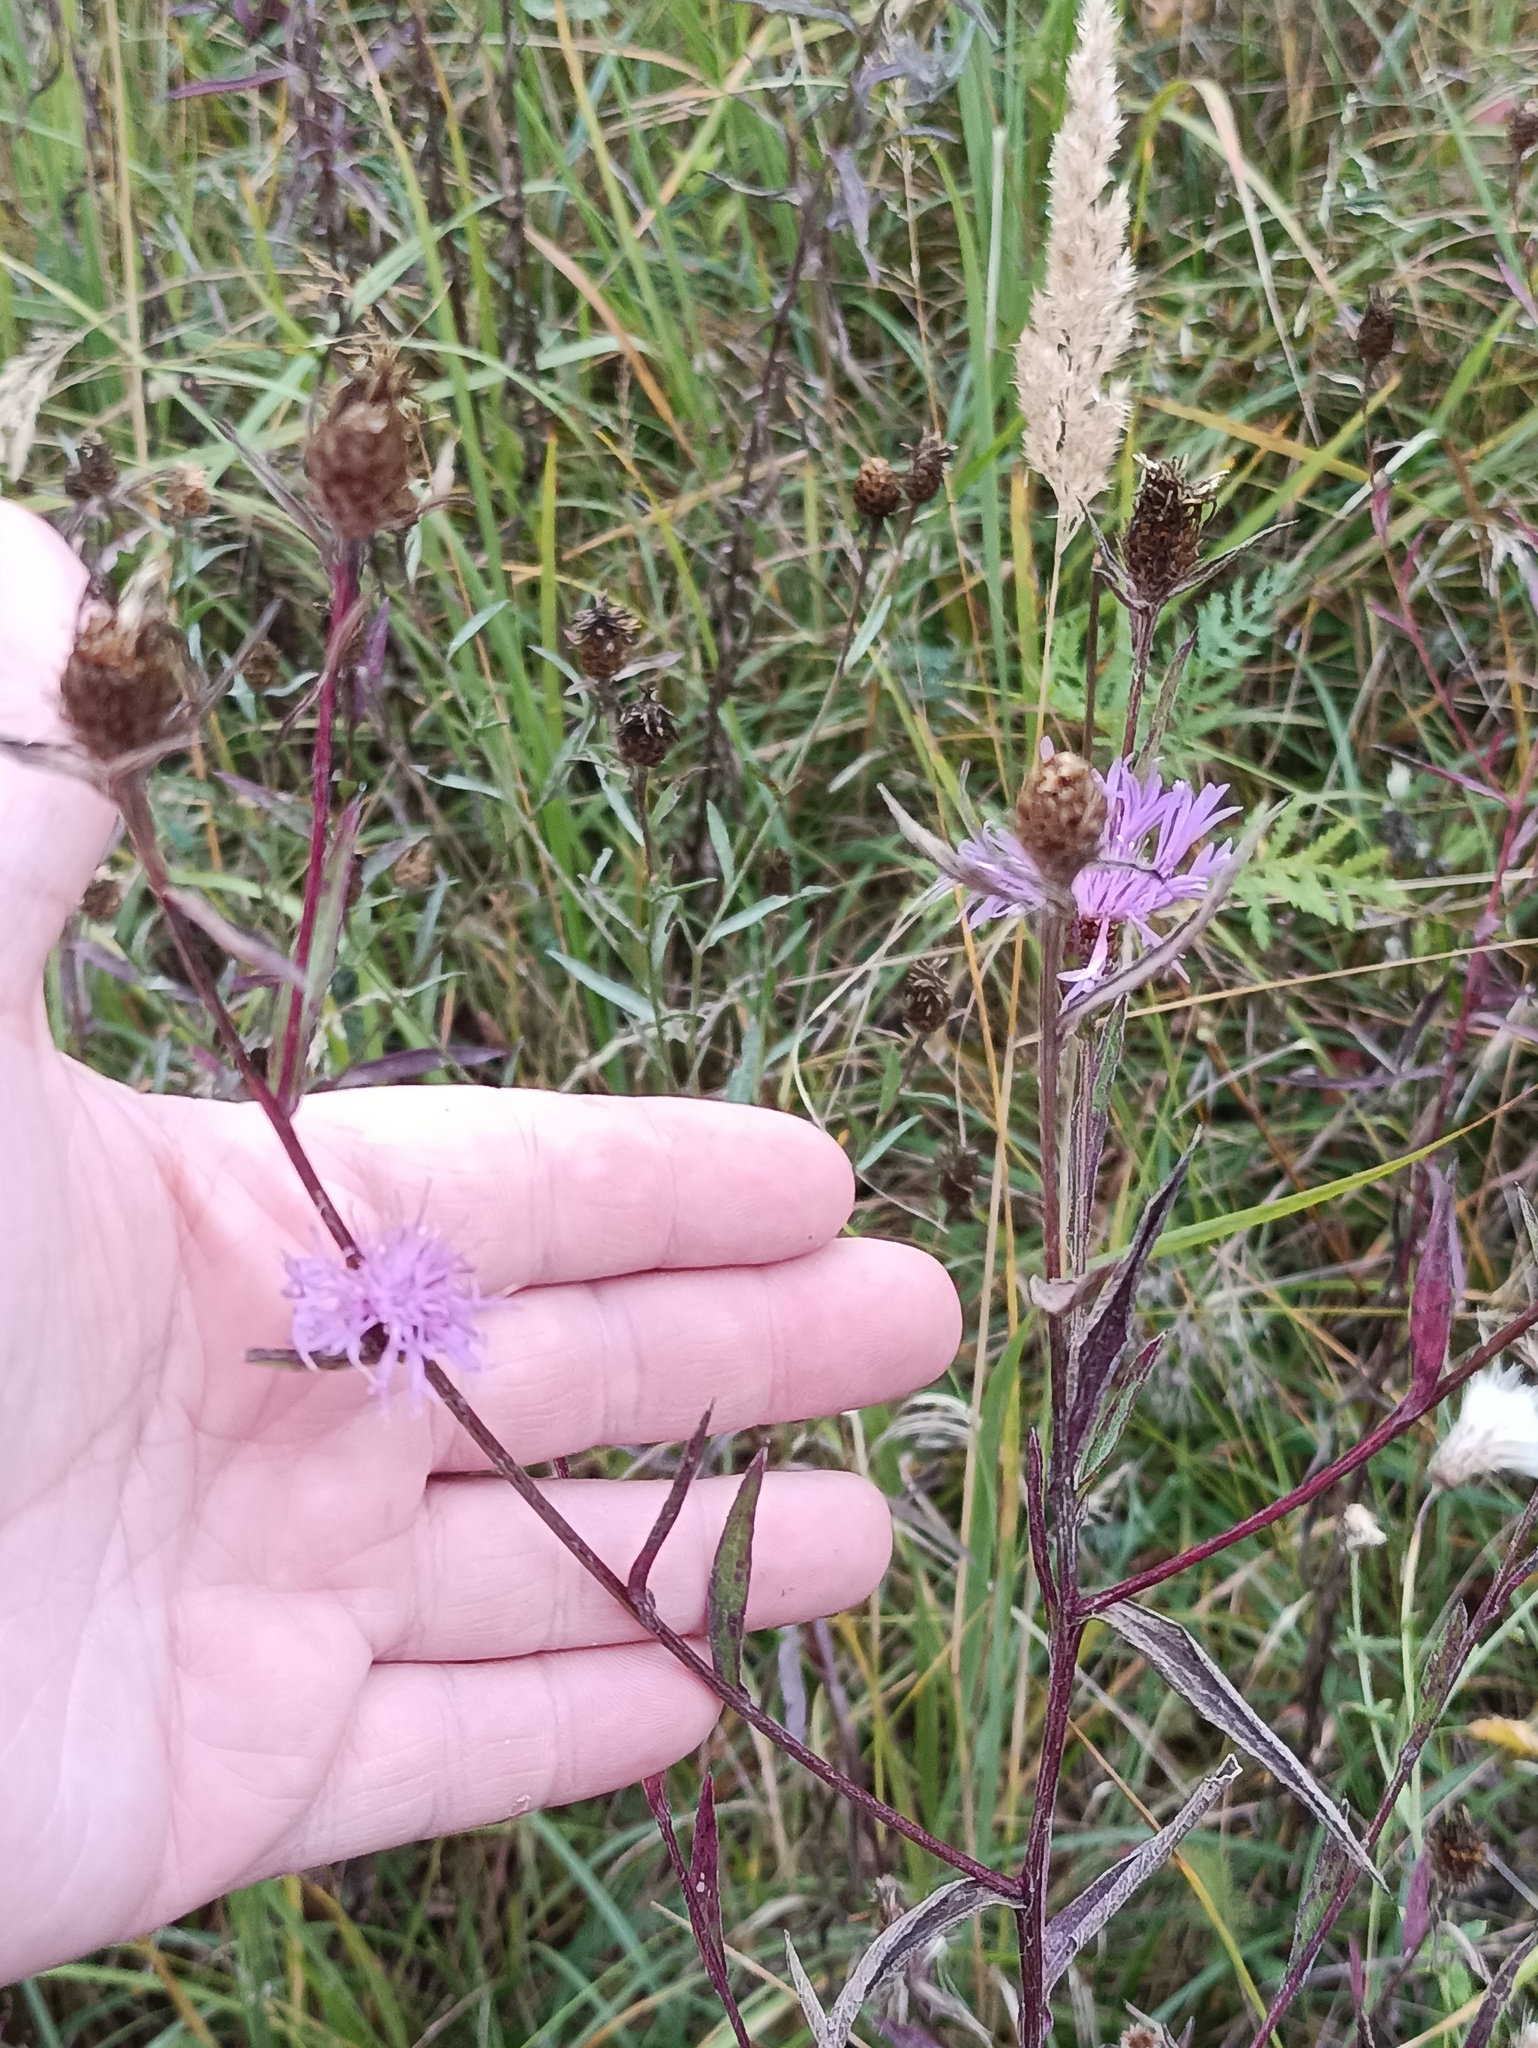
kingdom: Plantae
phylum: Tracheophyta
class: Magnoliopsida
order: Asterales
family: Asteraceae
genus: Centaurea
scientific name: Centaurea jacea
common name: Brown knapweed
